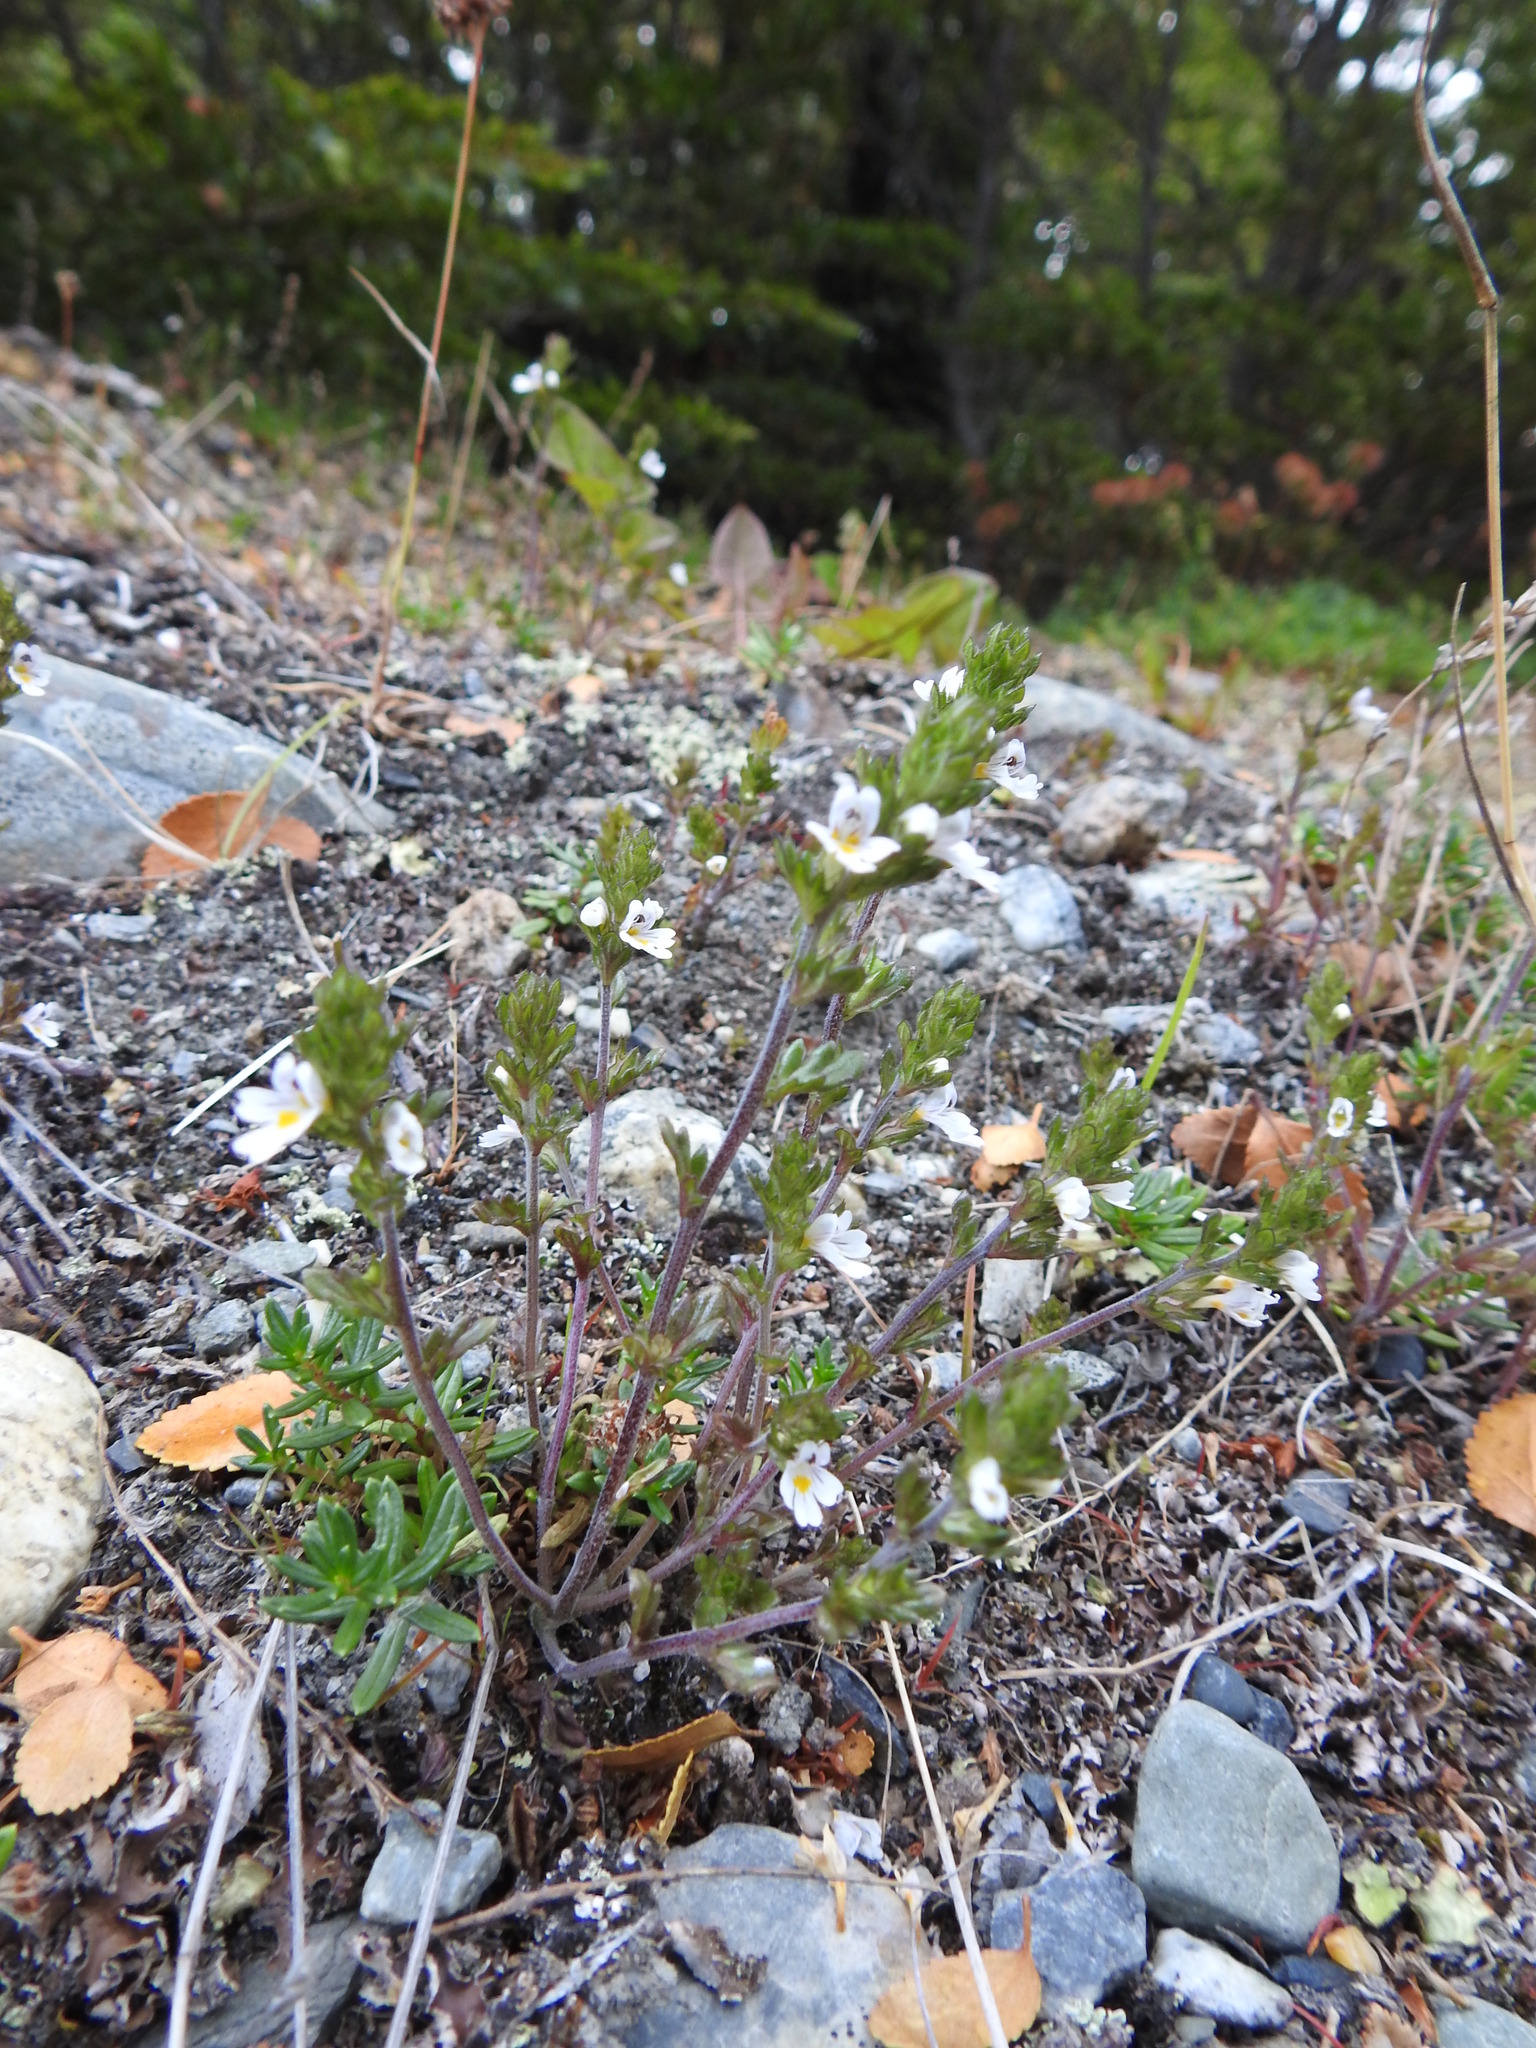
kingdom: Plantae
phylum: Tracheophyta
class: Magnoliopsida
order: Lamiales
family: Orobanchaceae
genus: Euphrasia
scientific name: Euphrasia officinalis
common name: Eyebright
